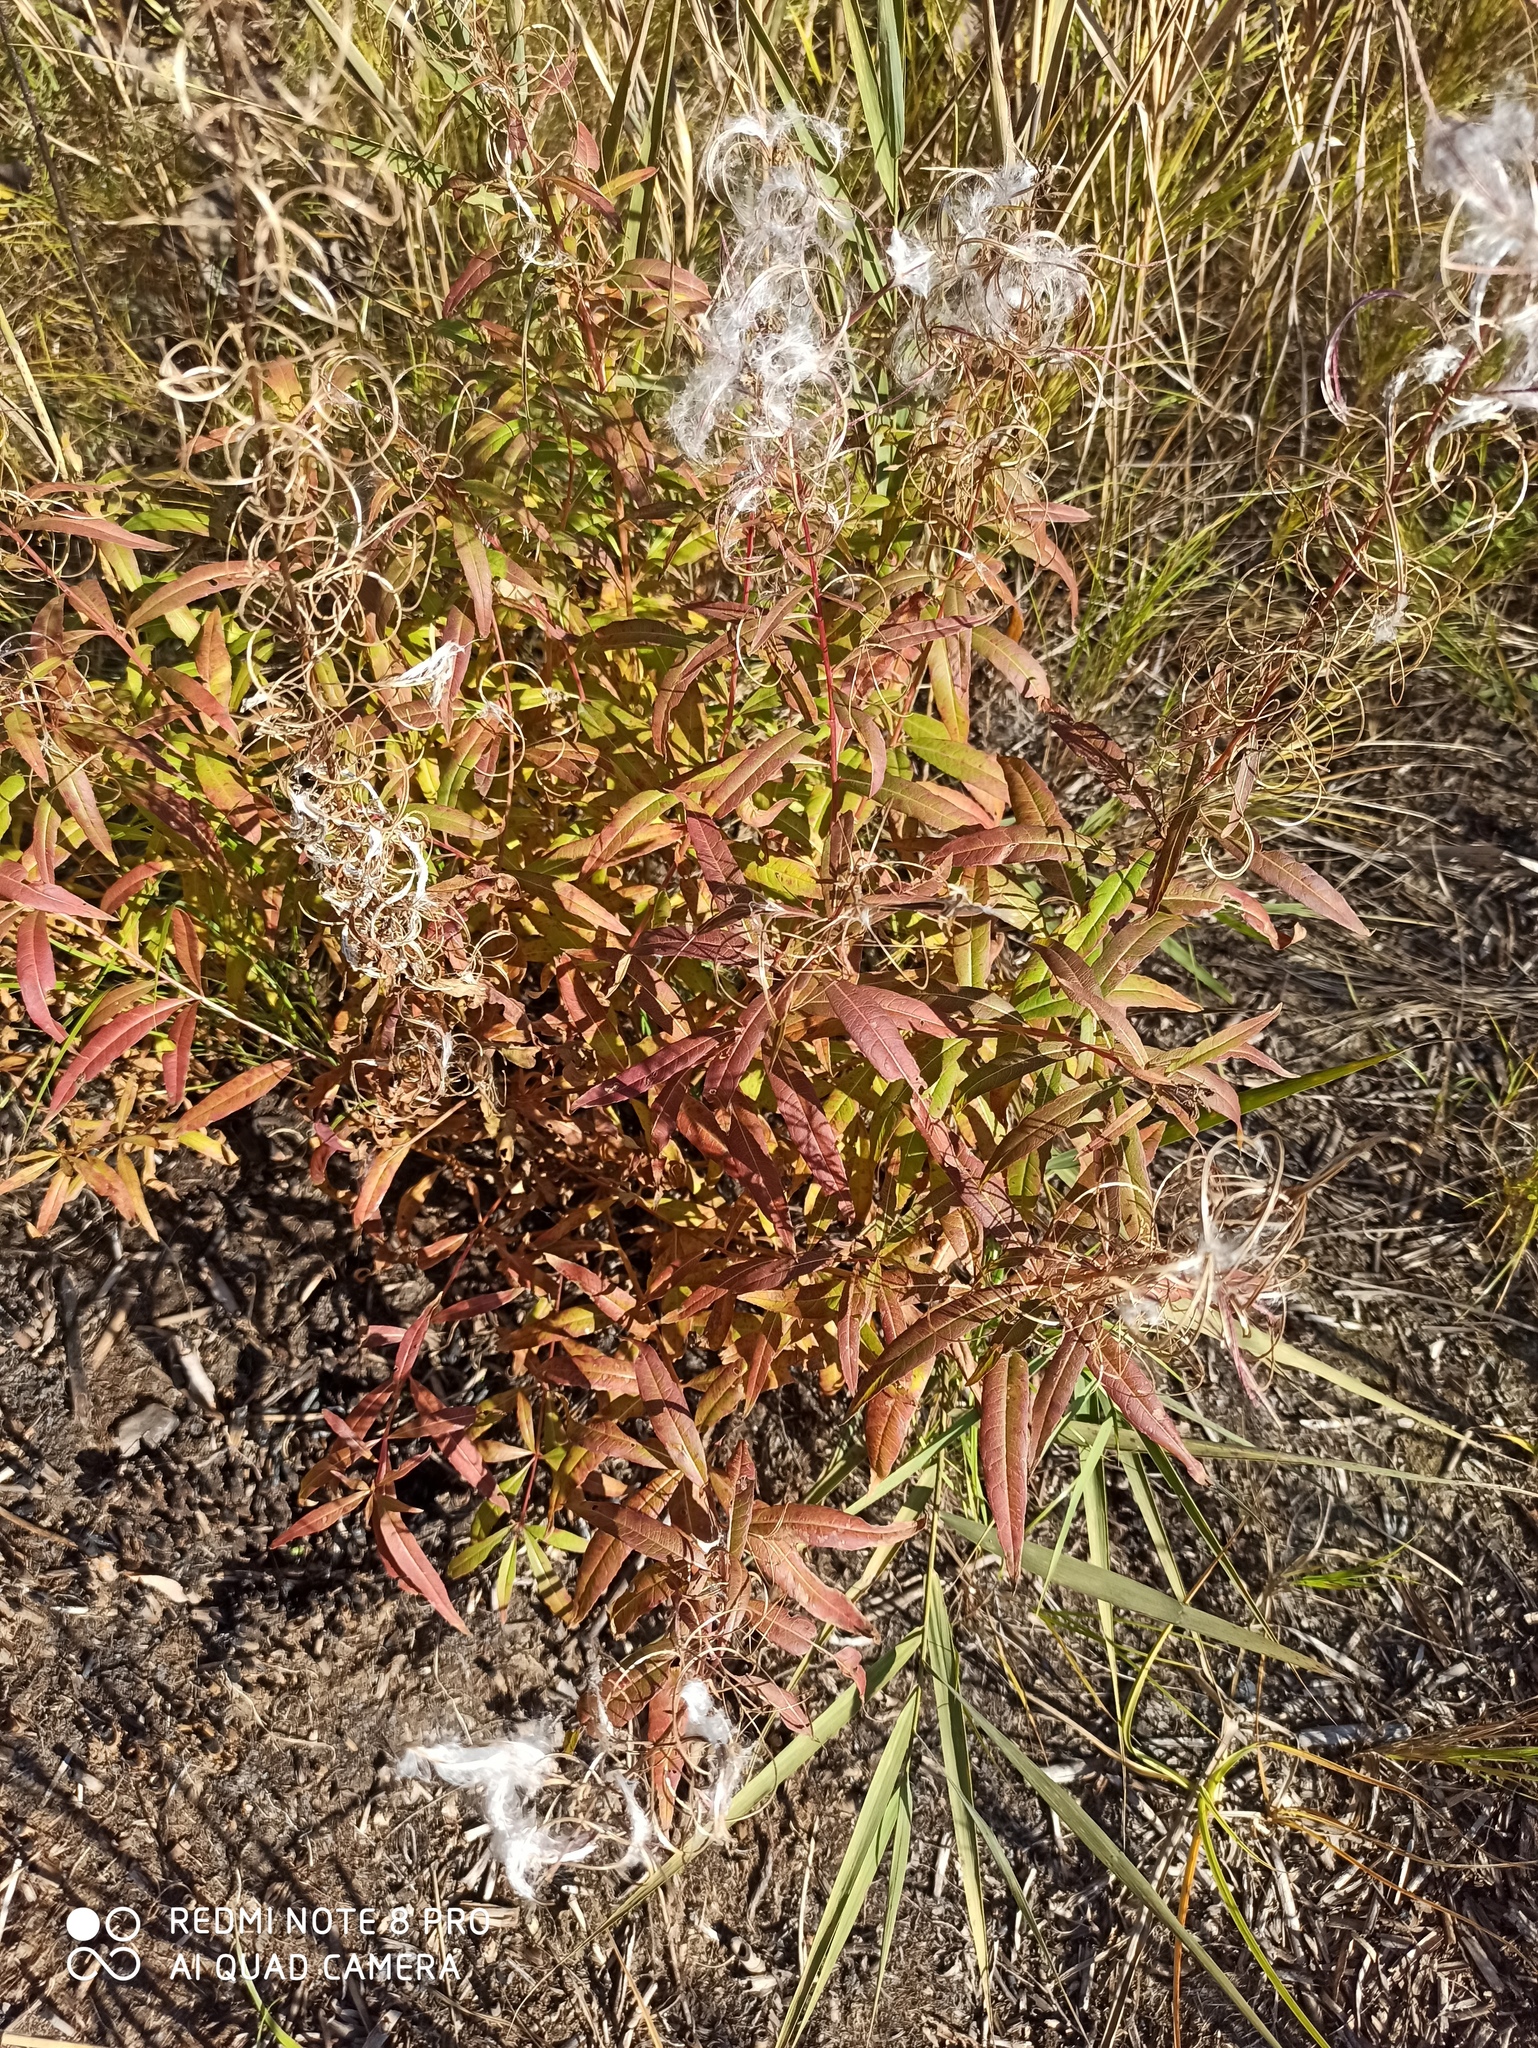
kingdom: Plantae
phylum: Tracheophyta
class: Magnoliopsida
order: Myrtales
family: Onagraceae
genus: Chamaenerion
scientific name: Chamaenerion angustifolium
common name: Fireweed
